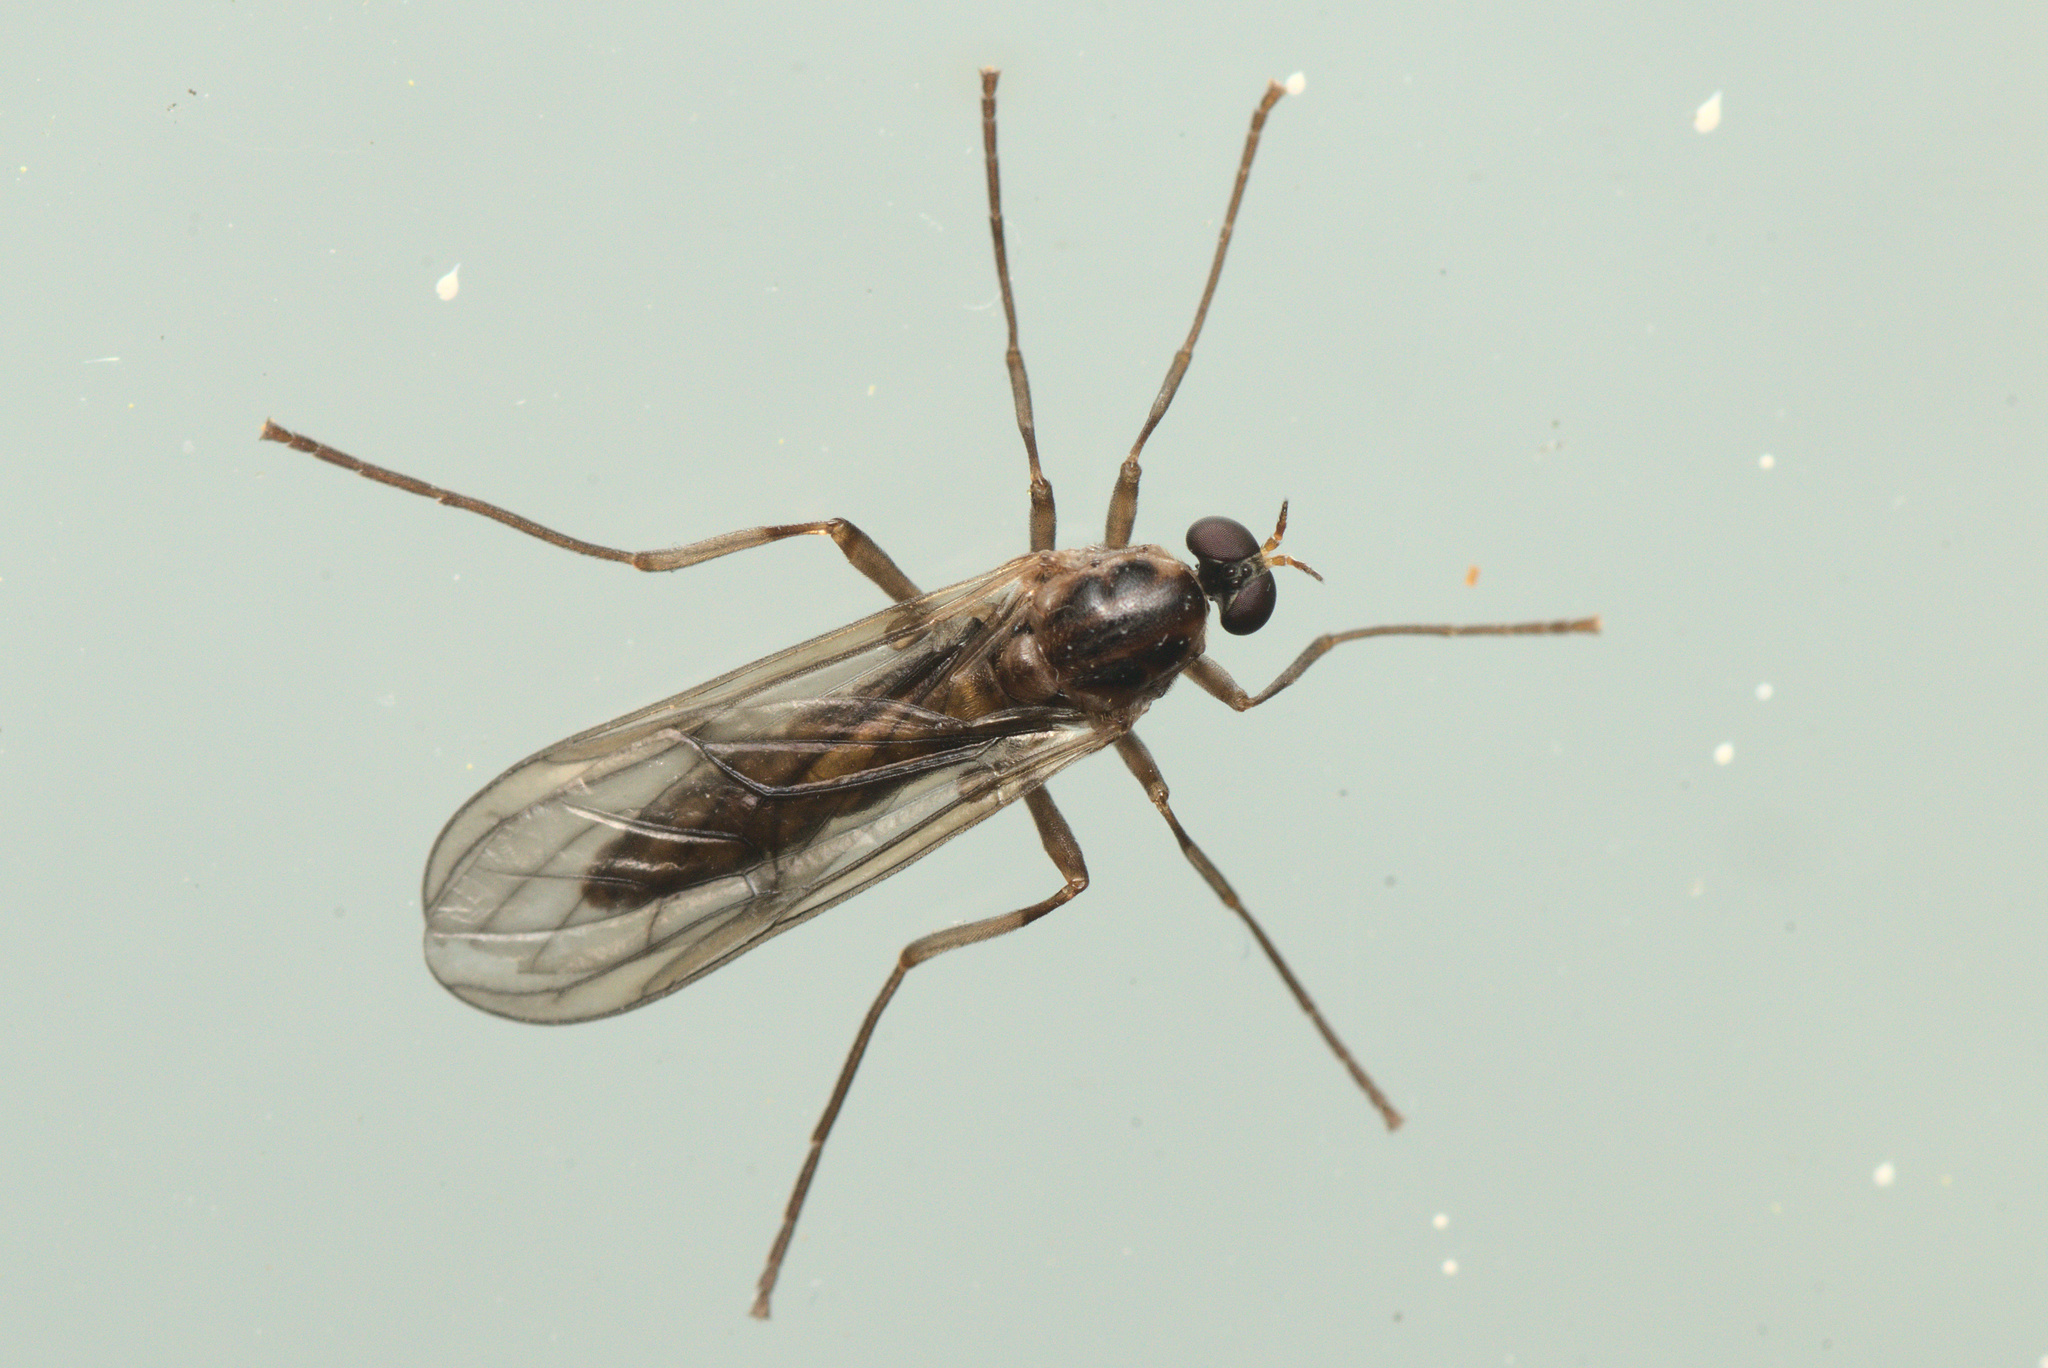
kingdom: Animalia
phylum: Arthropoda
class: Insecta
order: Diptera
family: Stratiomyidae
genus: Boreoides
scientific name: Boreoides tasmaniensis
